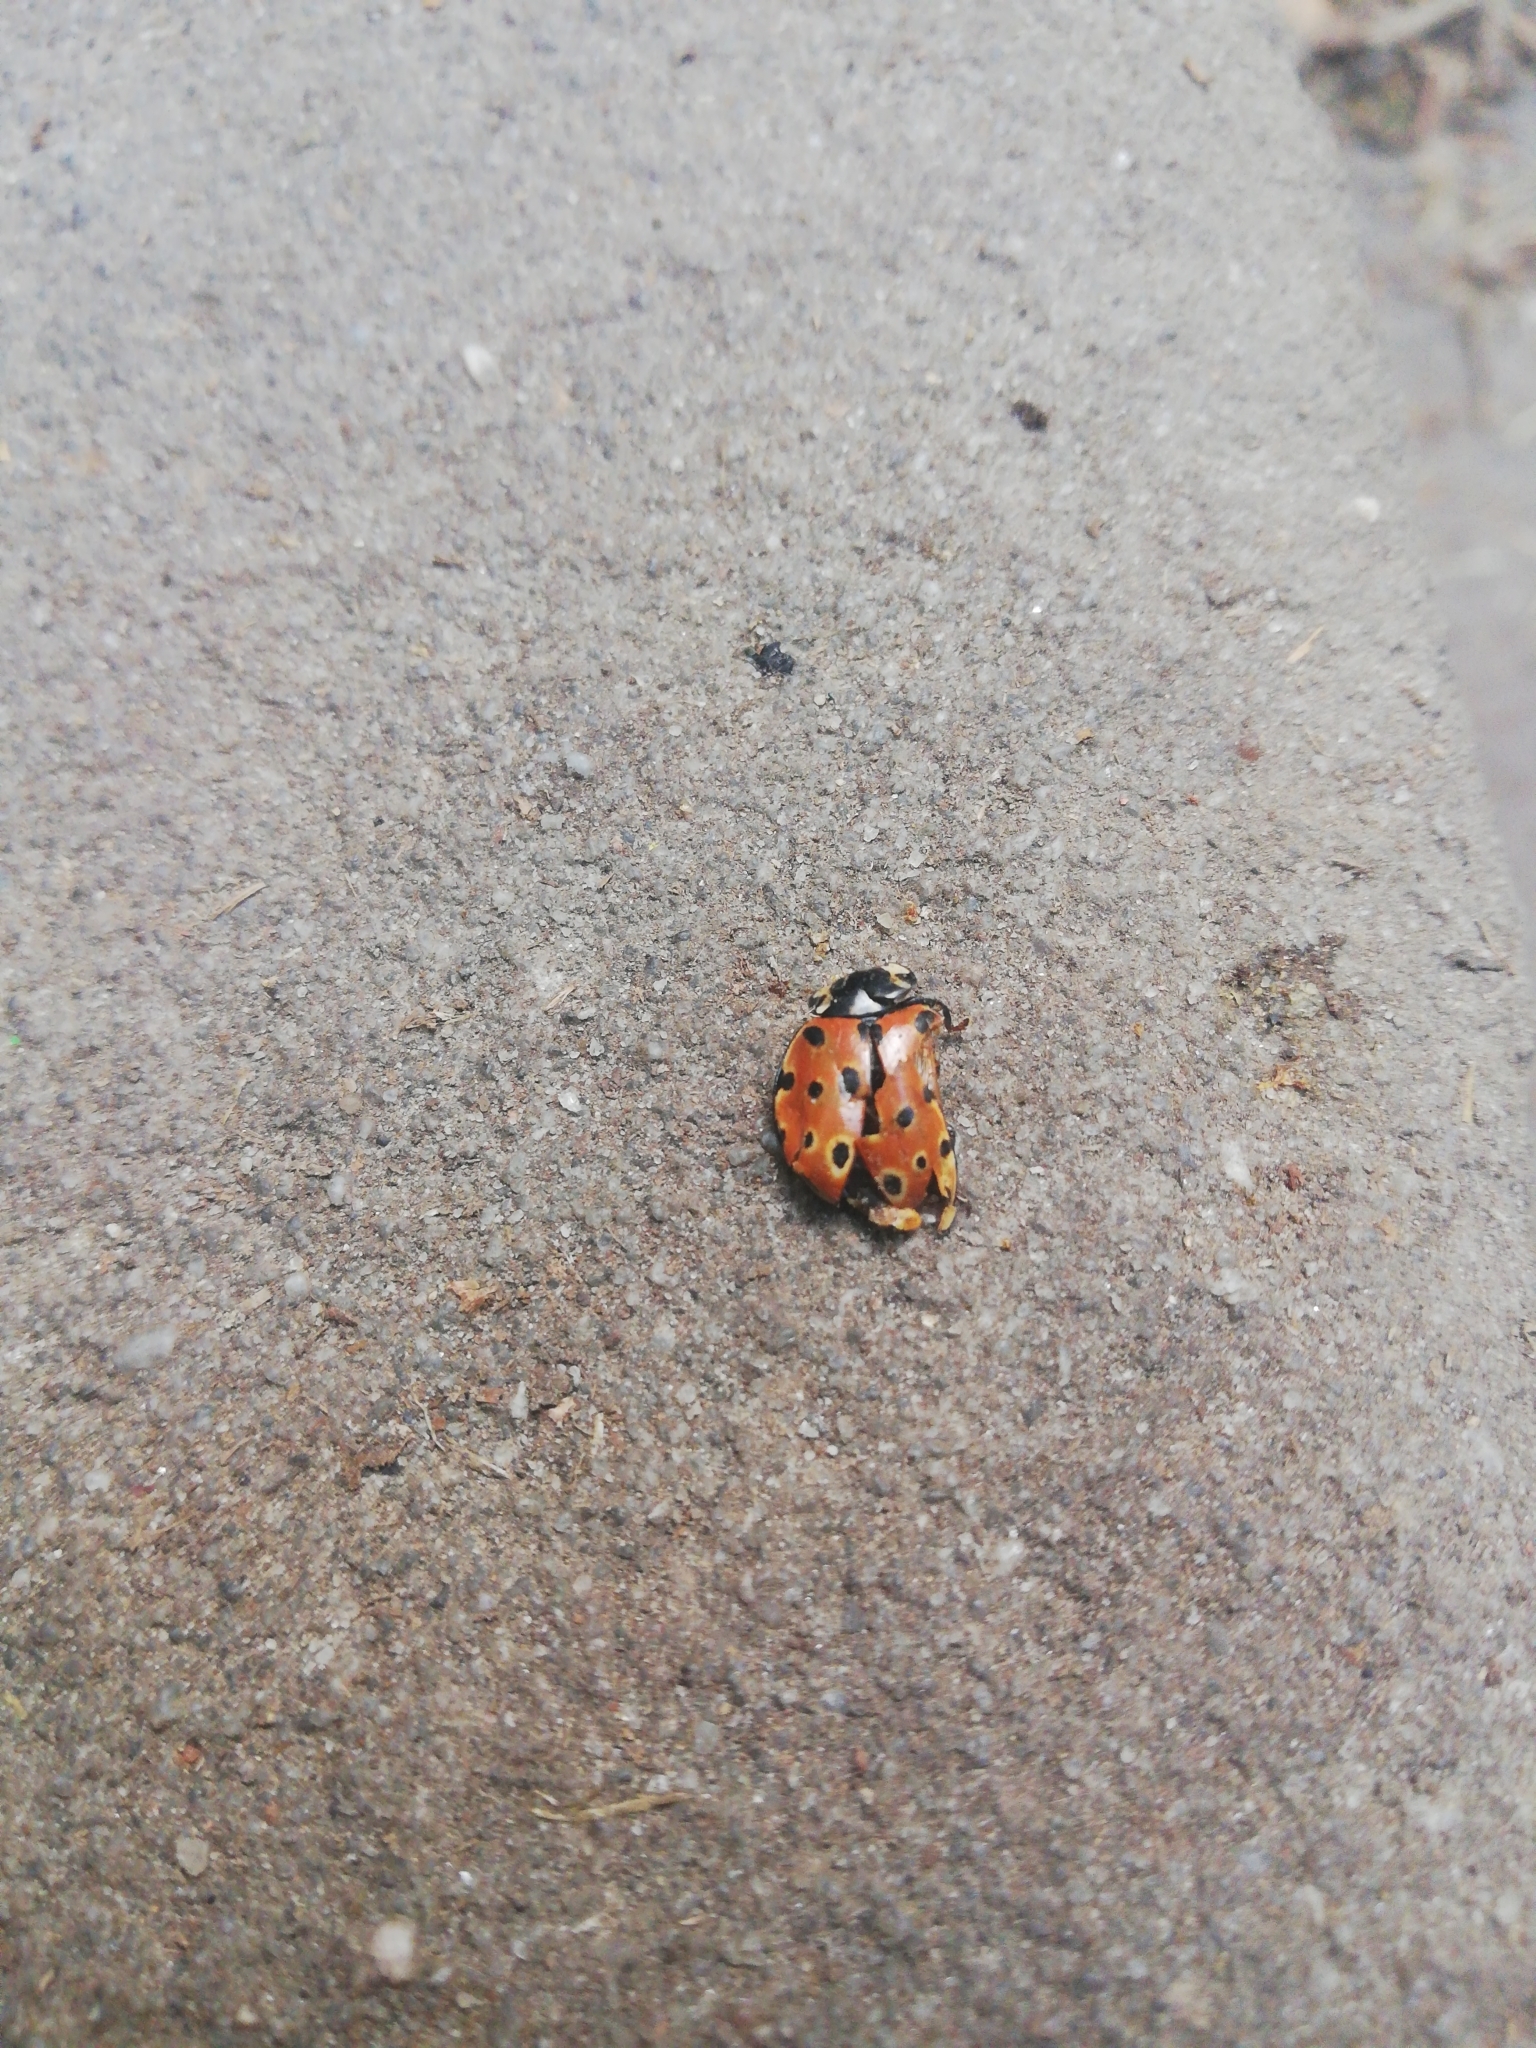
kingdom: Animalia
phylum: Arthropoda
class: Insecta
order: Coleoptera
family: Coccinellidae
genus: Anatis
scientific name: Anatis ocellata
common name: Eyed ladybird
